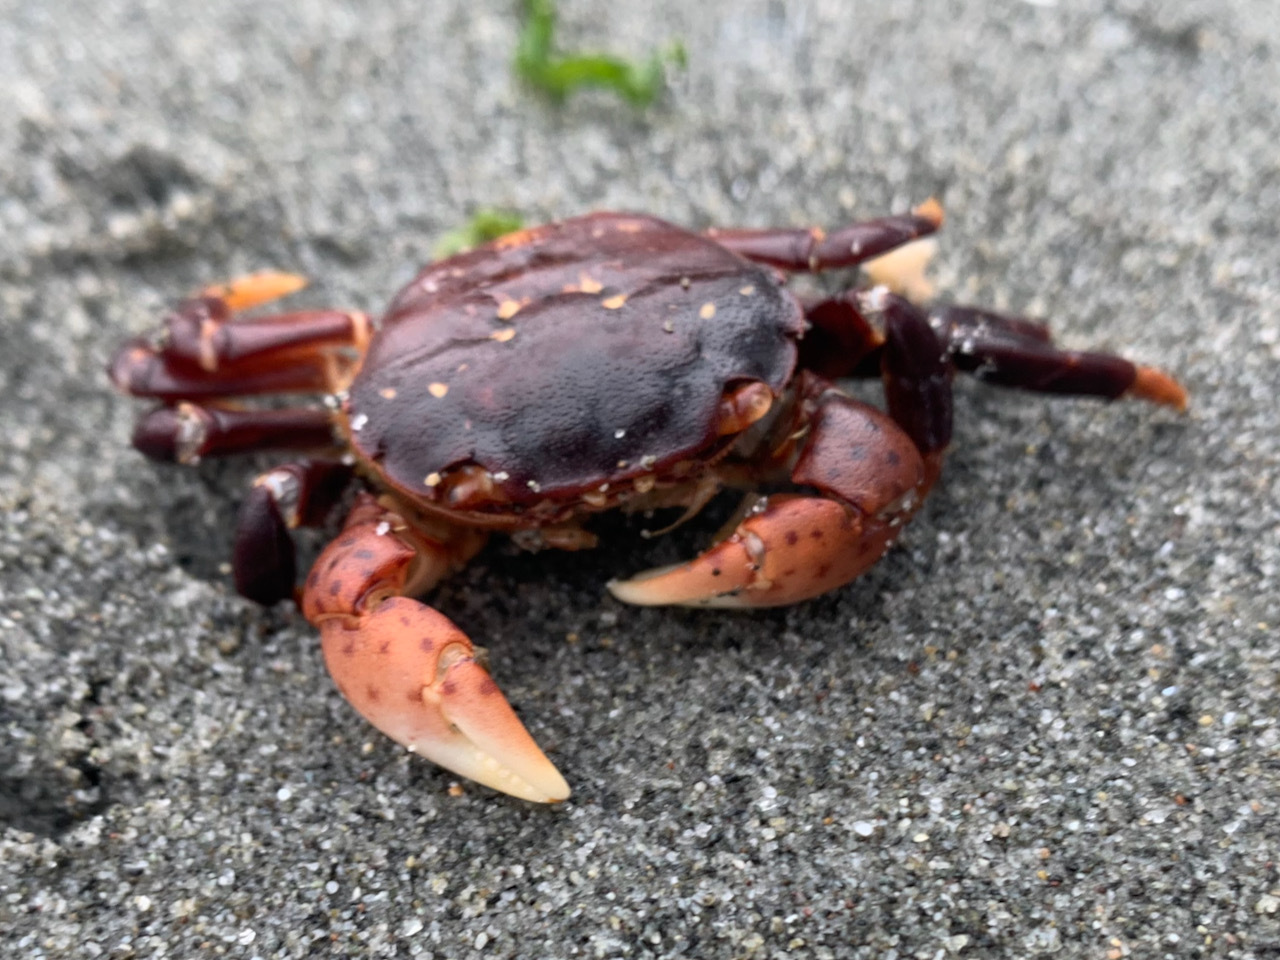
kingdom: Animalia
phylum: Arthropoda
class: Malacostraca
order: Decapoda
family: Varunidae
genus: Hemigrapsus
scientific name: Hemigrapsus nudus
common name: Purple shore crab
